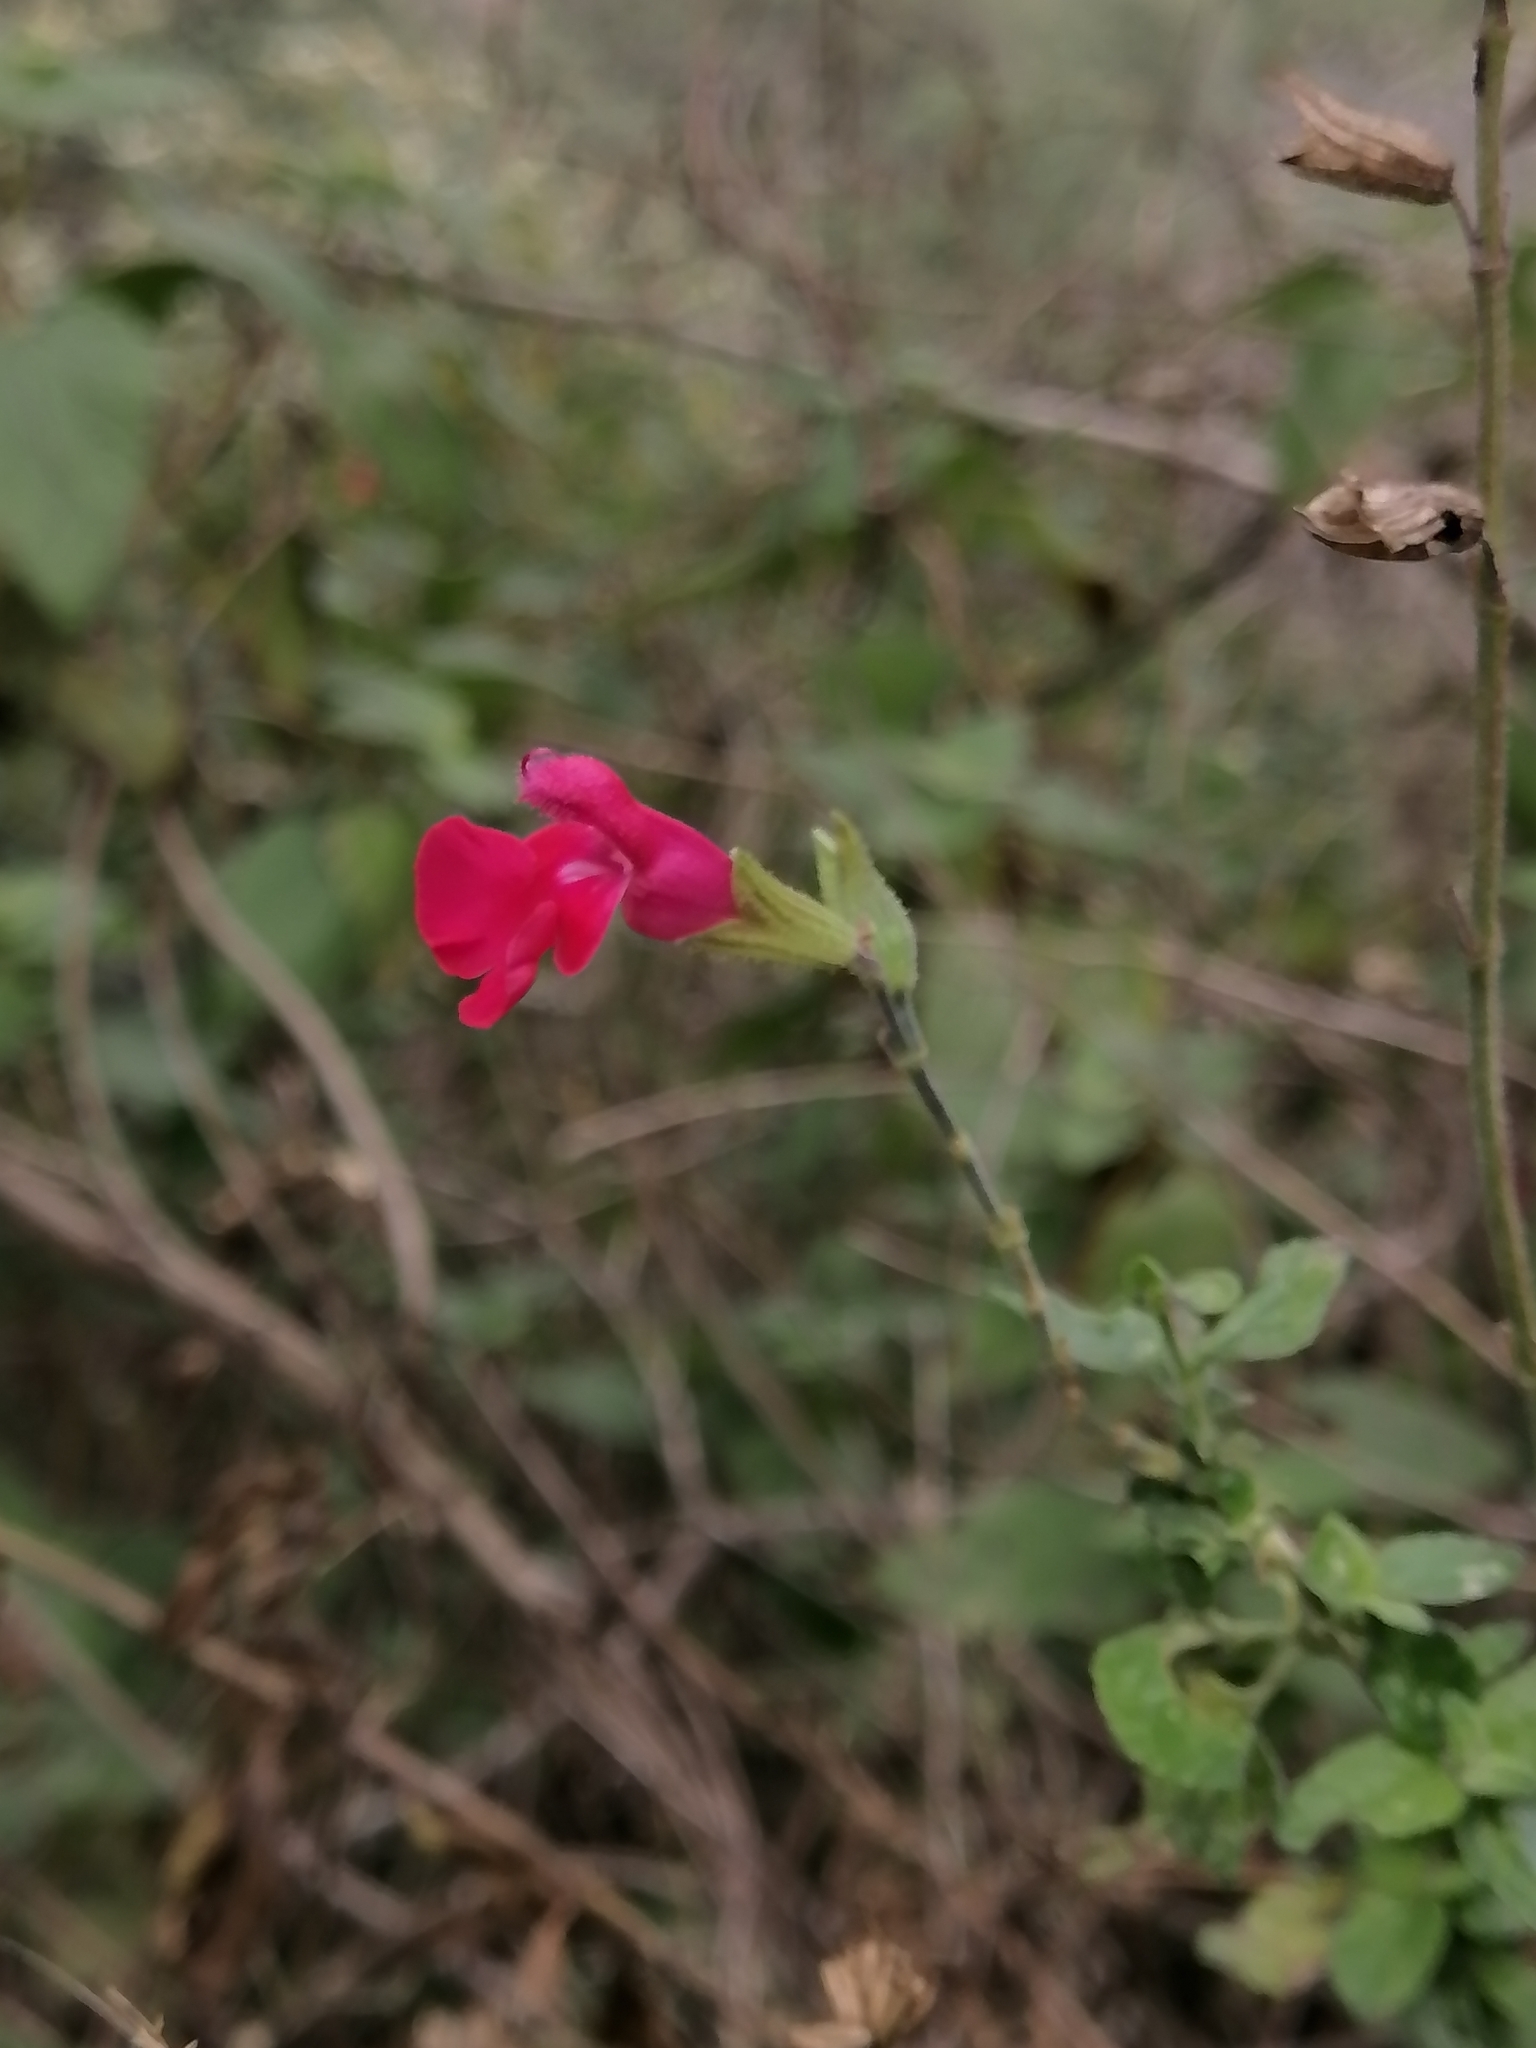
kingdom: Plantae
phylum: Tracheophyta
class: Magnoliopsida
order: Lamiales
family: Lamiaceae
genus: Salvia
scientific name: Salvia microphylla
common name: Baby sage
